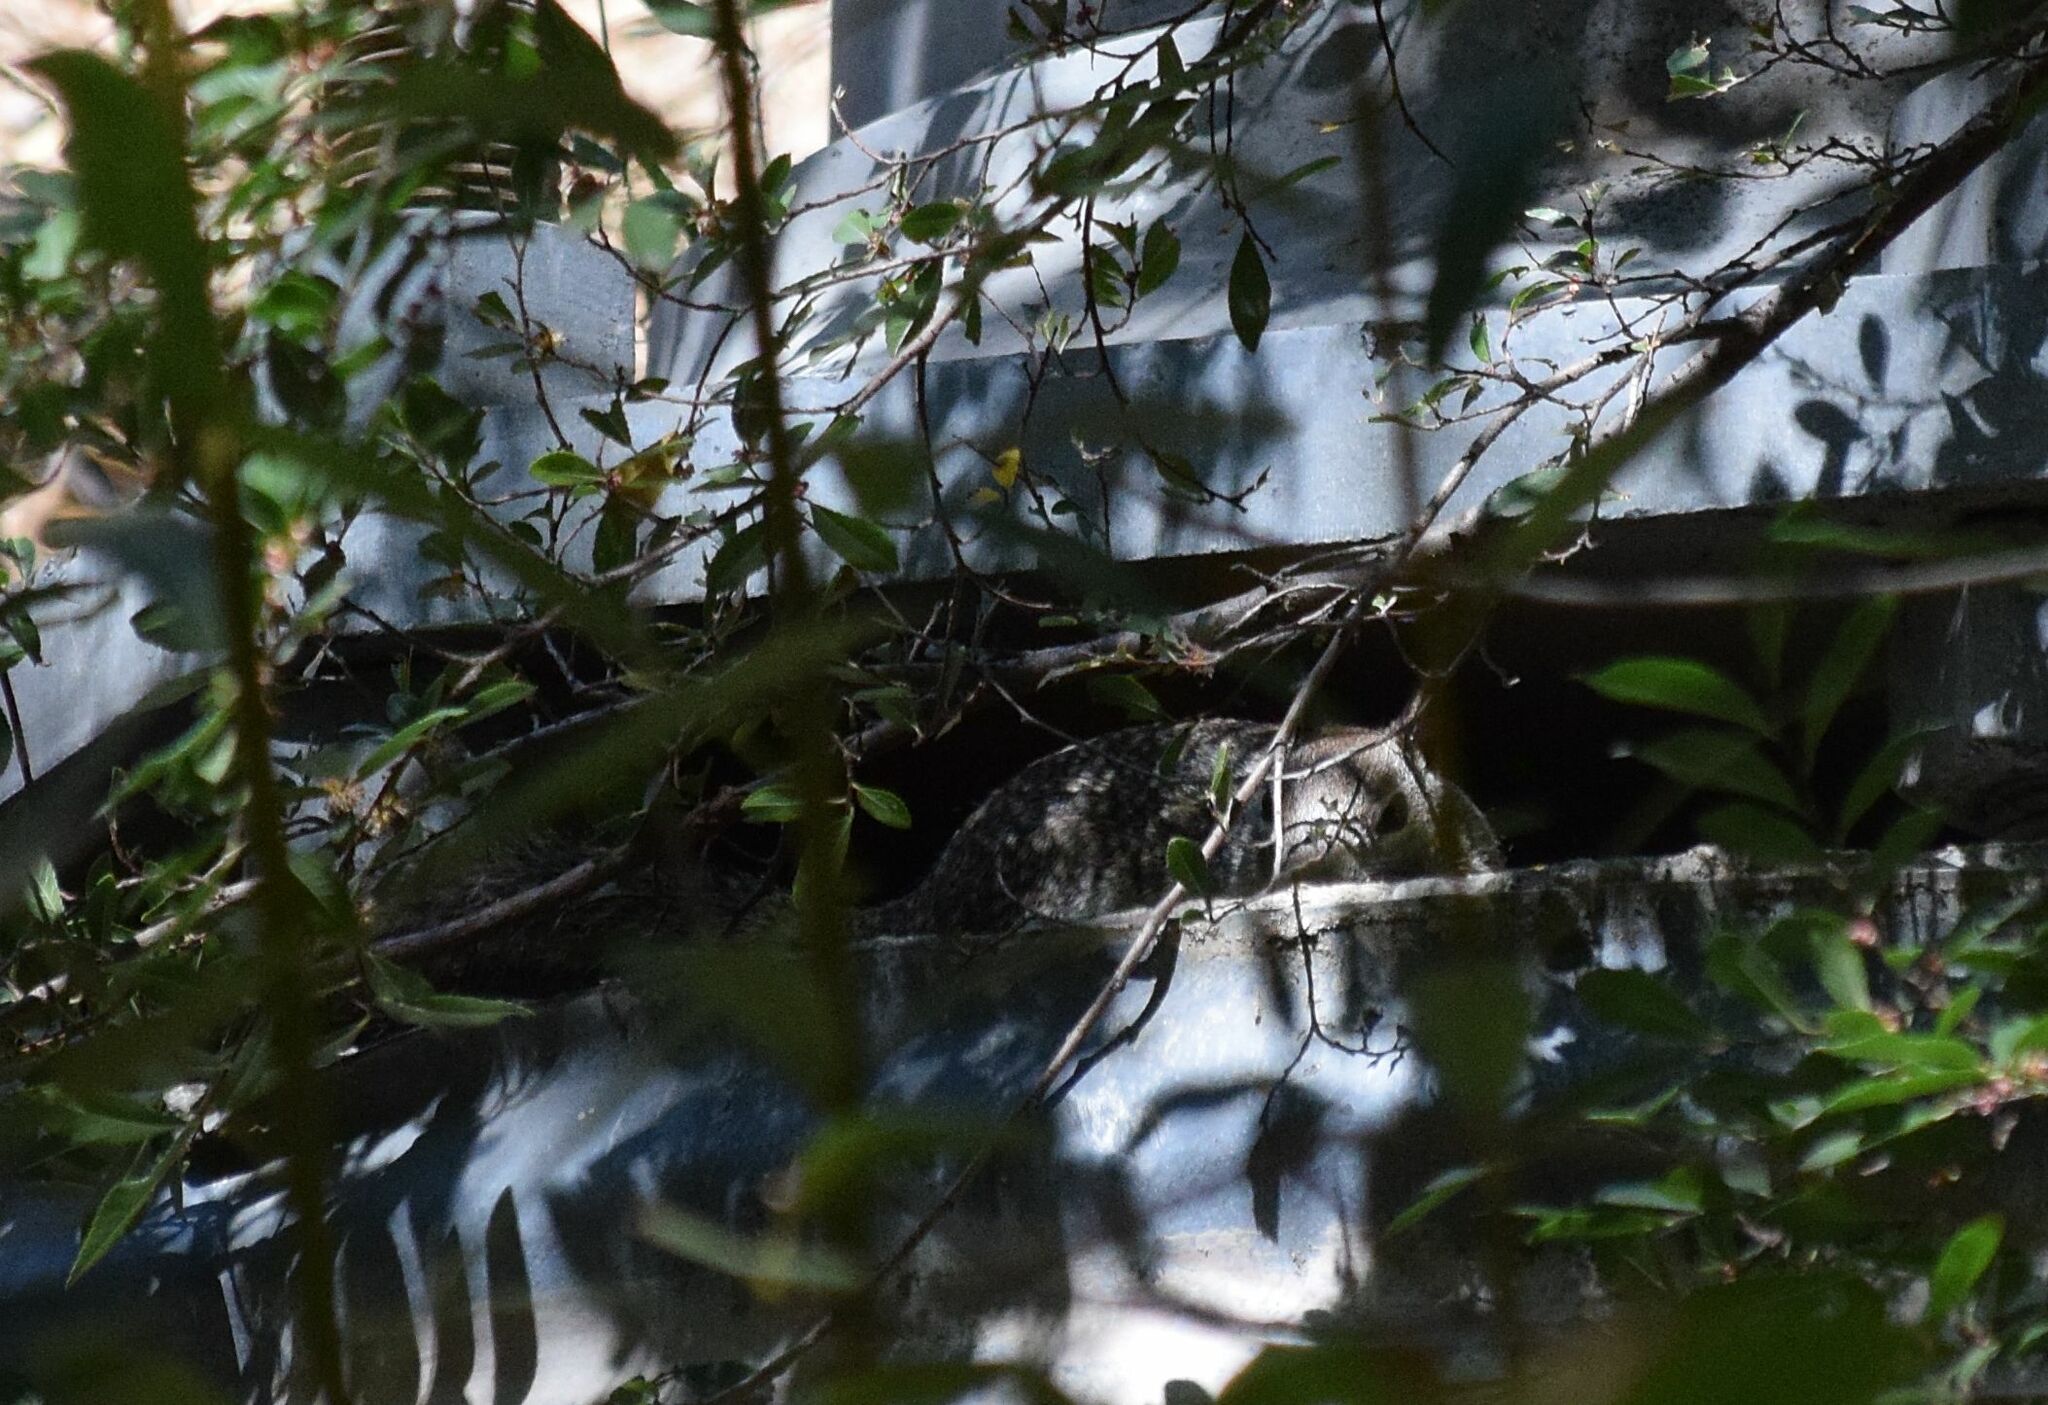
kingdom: Animalia
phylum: Chordata
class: Mammalia
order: Rodentia
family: Sciuridae
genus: Otospermophilus
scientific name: Otospermophilus beecheyi
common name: California ground squirrel
